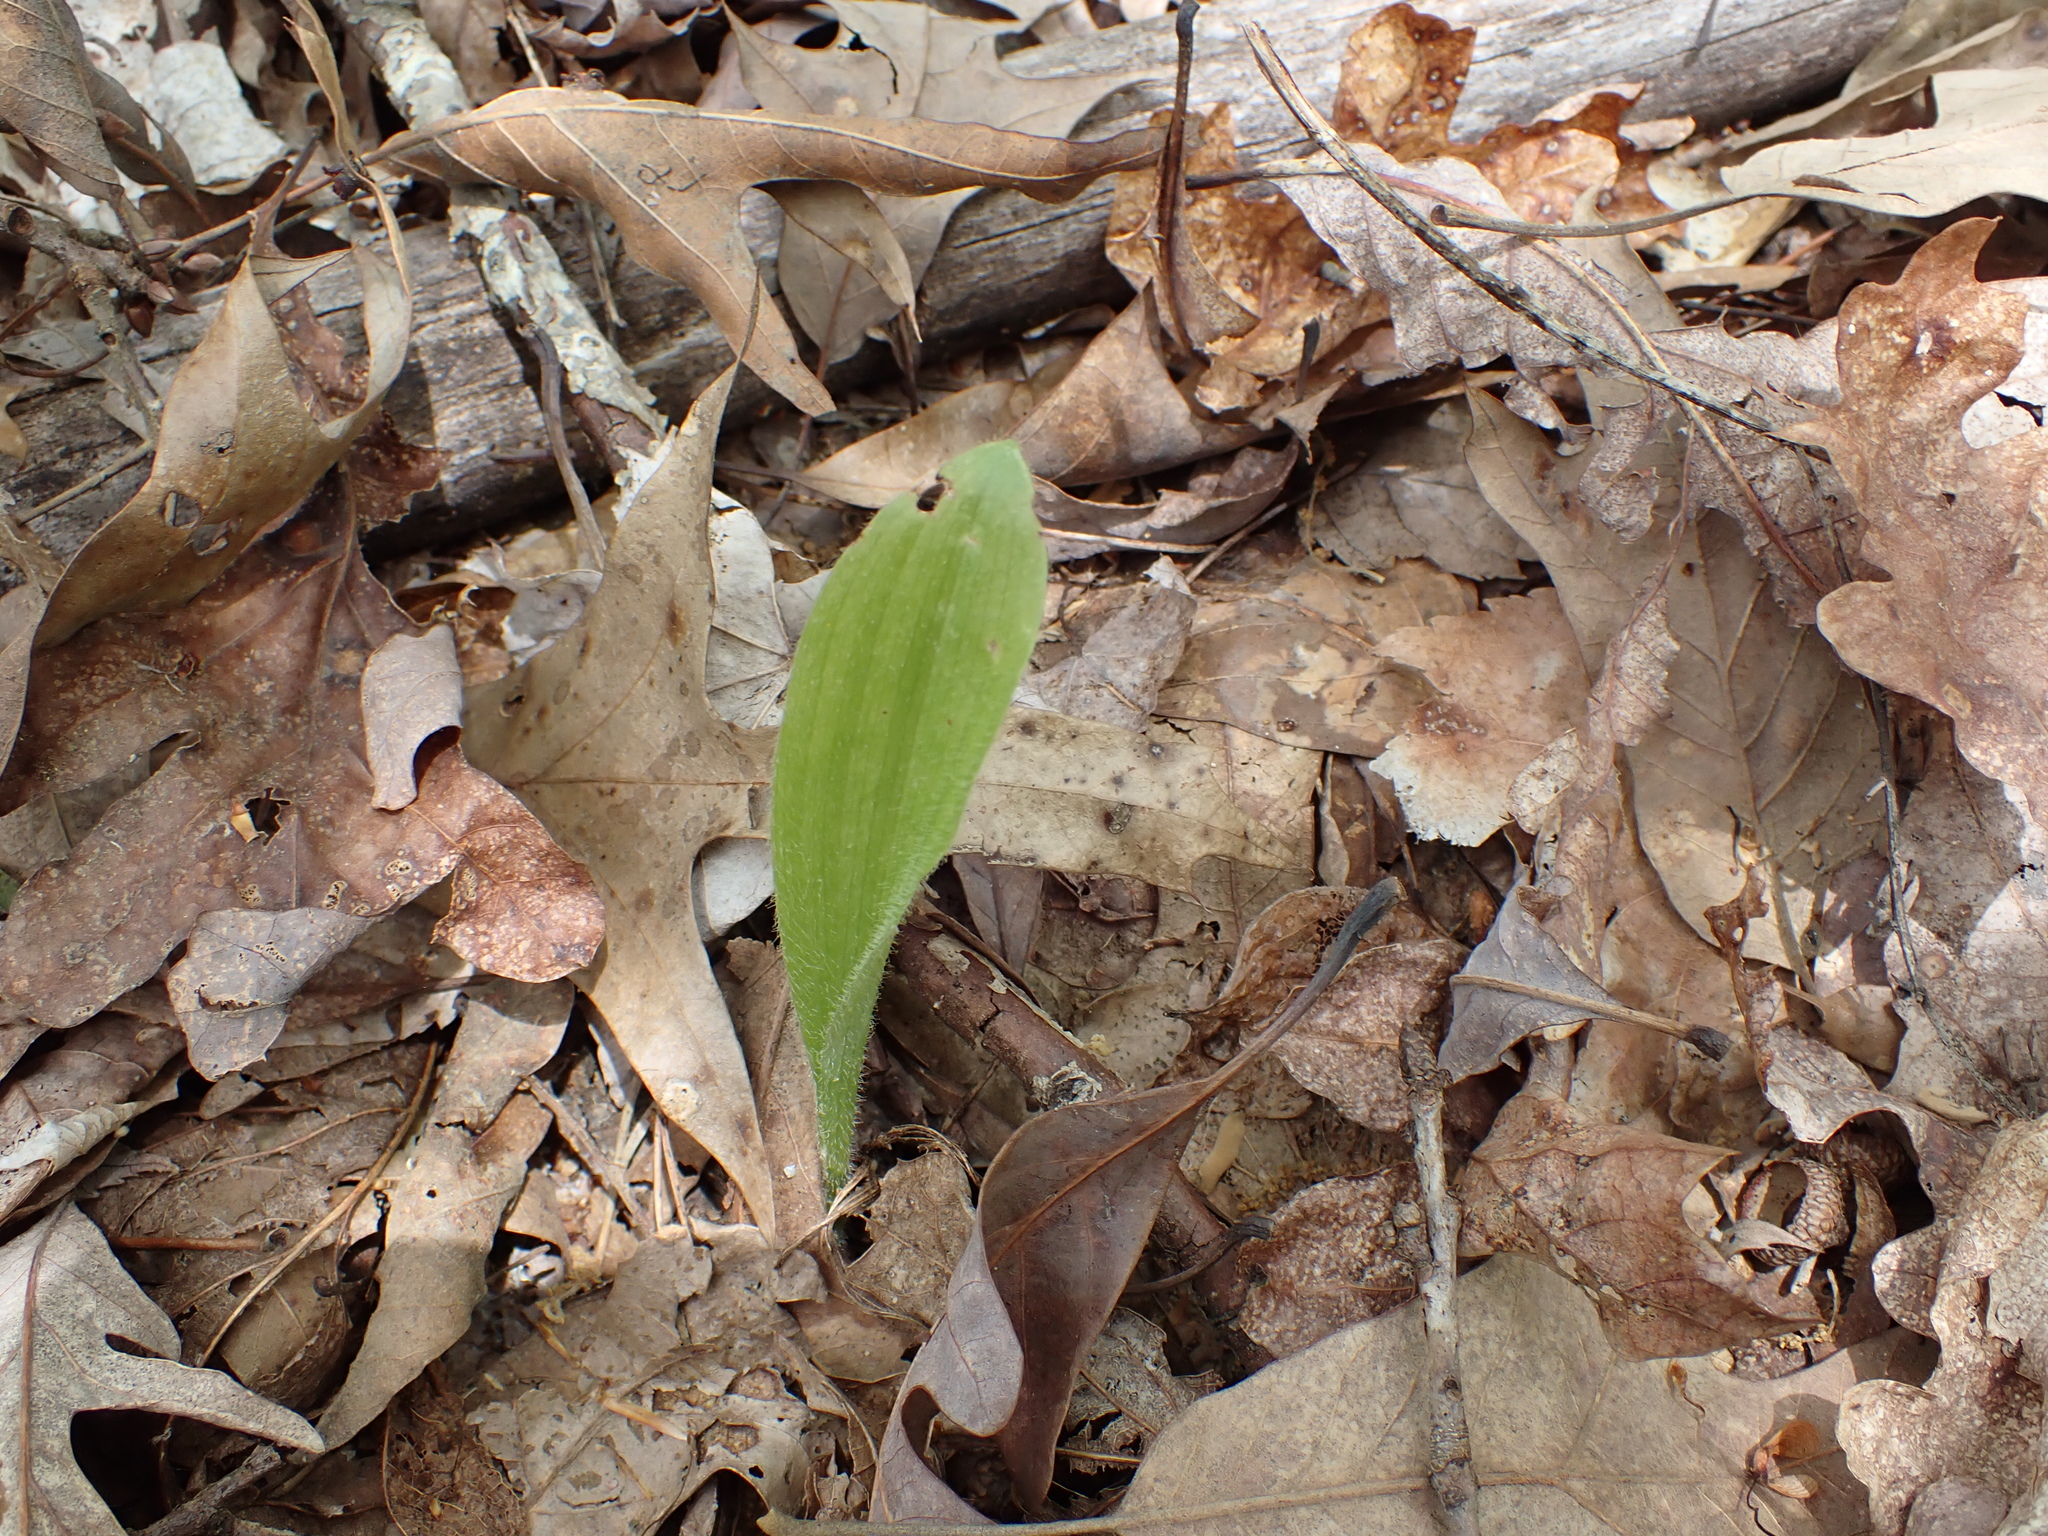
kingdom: Plantae
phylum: Tracheophyta
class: Liliopsida
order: Asparagales
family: Orchidaceae
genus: Cypripedium
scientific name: Cypripedium acaule
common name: Pink lady's-slipper
